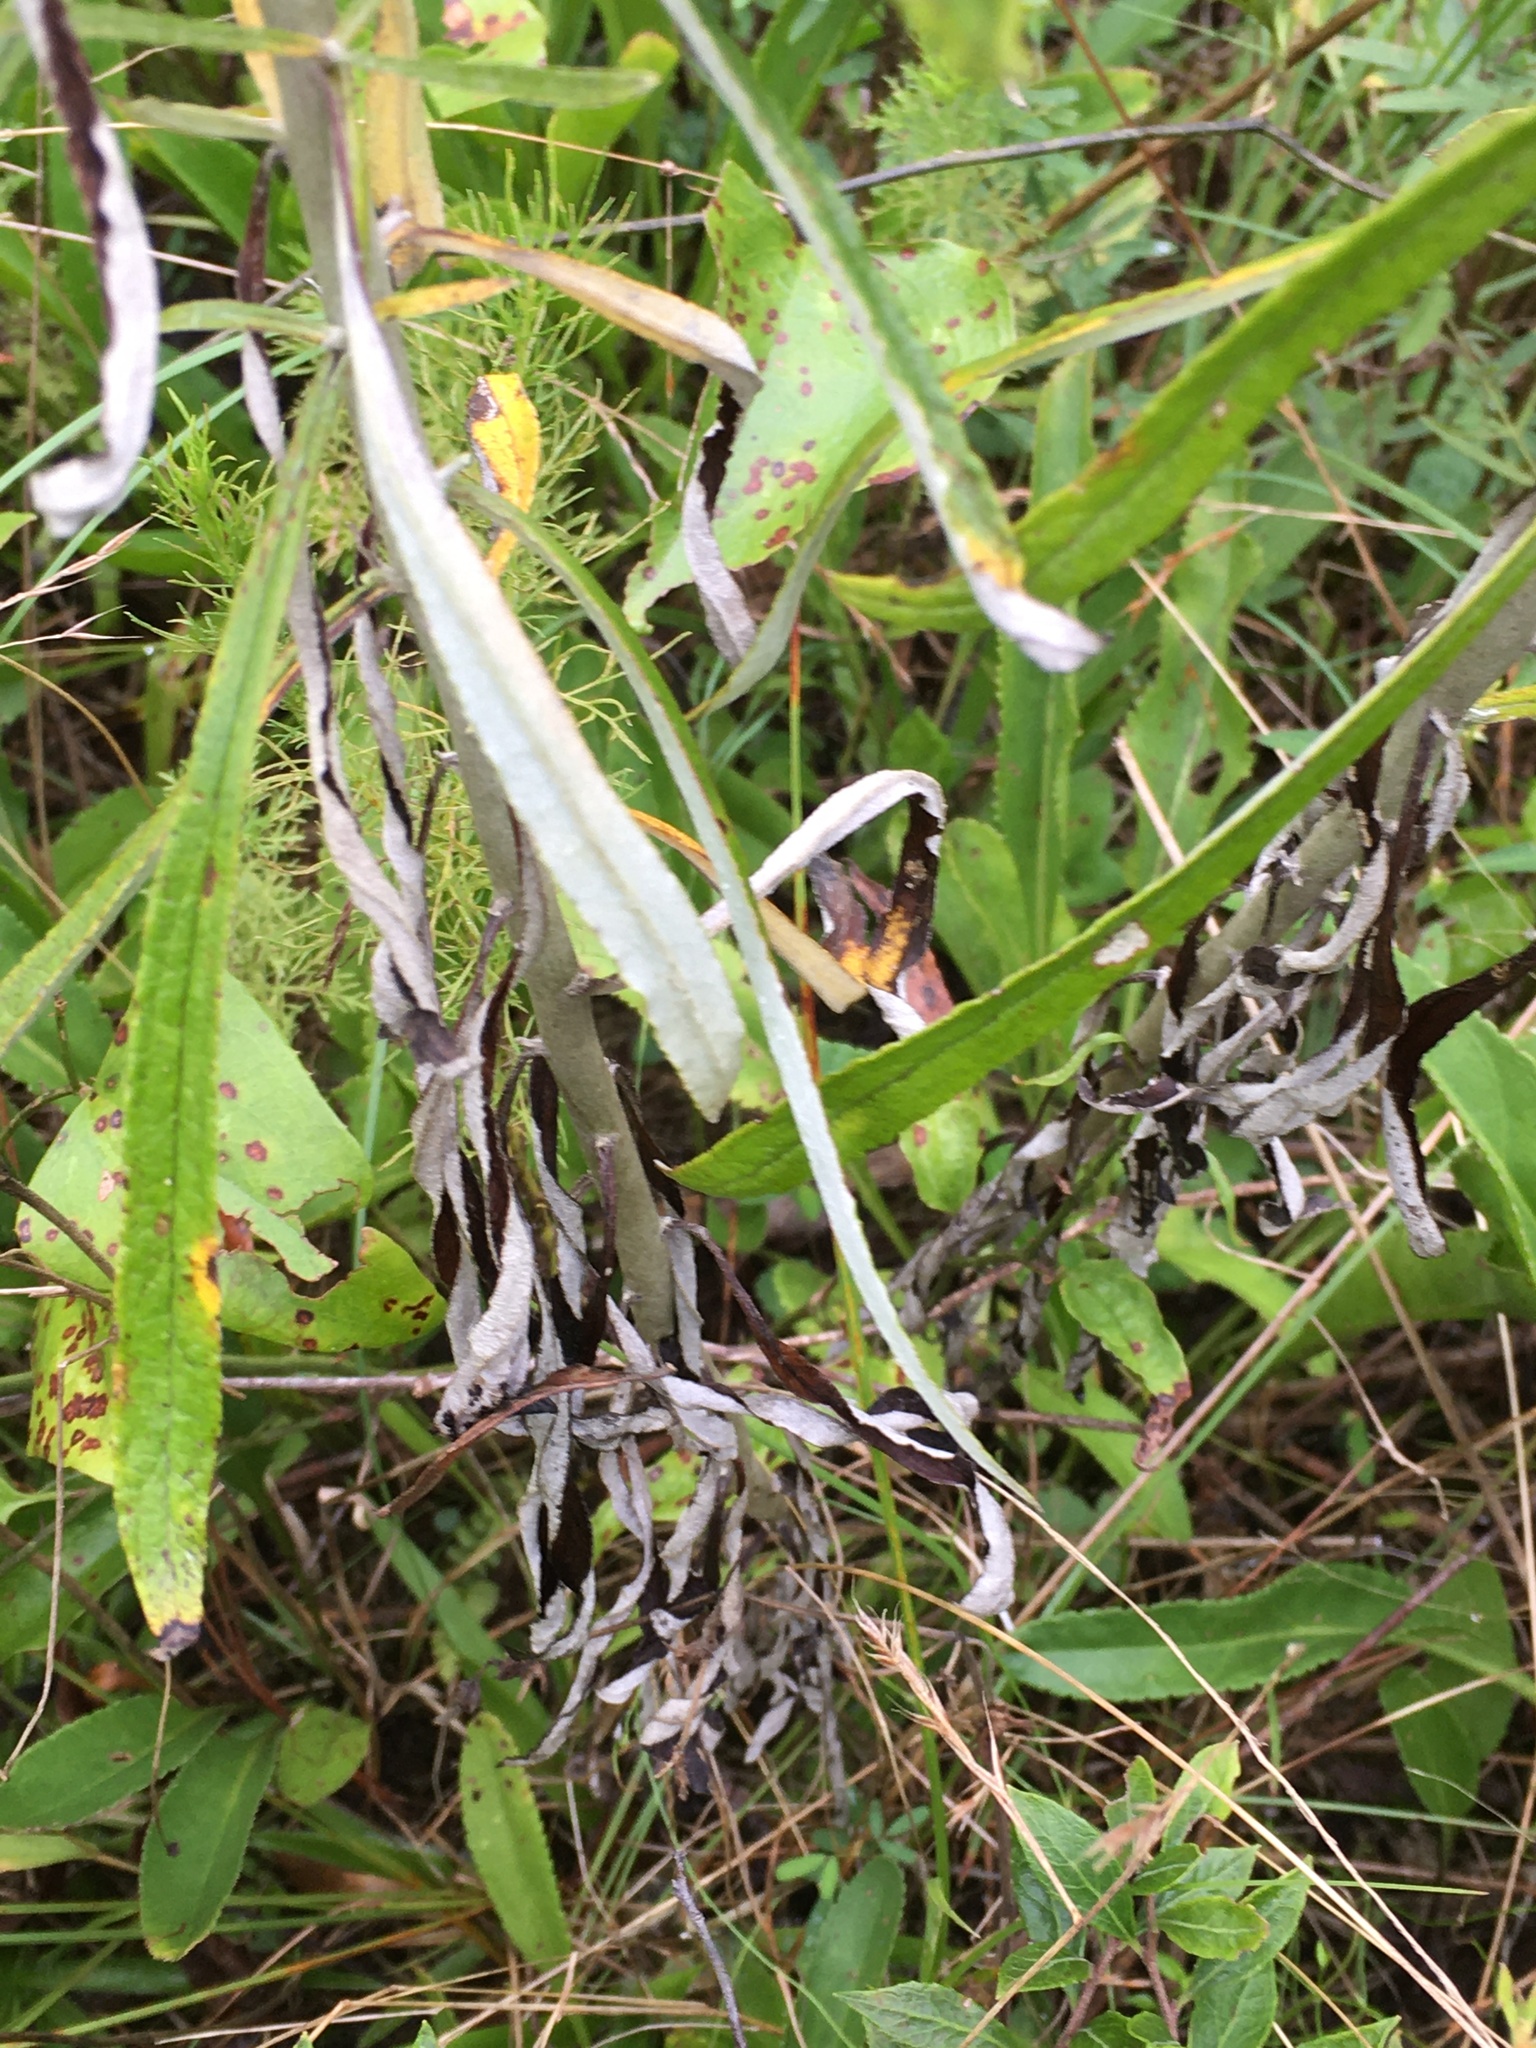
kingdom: Plantae
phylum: Tracheophyta
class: Magnoliopsida
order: Asterales
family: Asteraceae
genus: Pseudognaphalium
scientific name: Pseudognaphalium obtusifolium
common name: Eastern rabbit-tobacco
